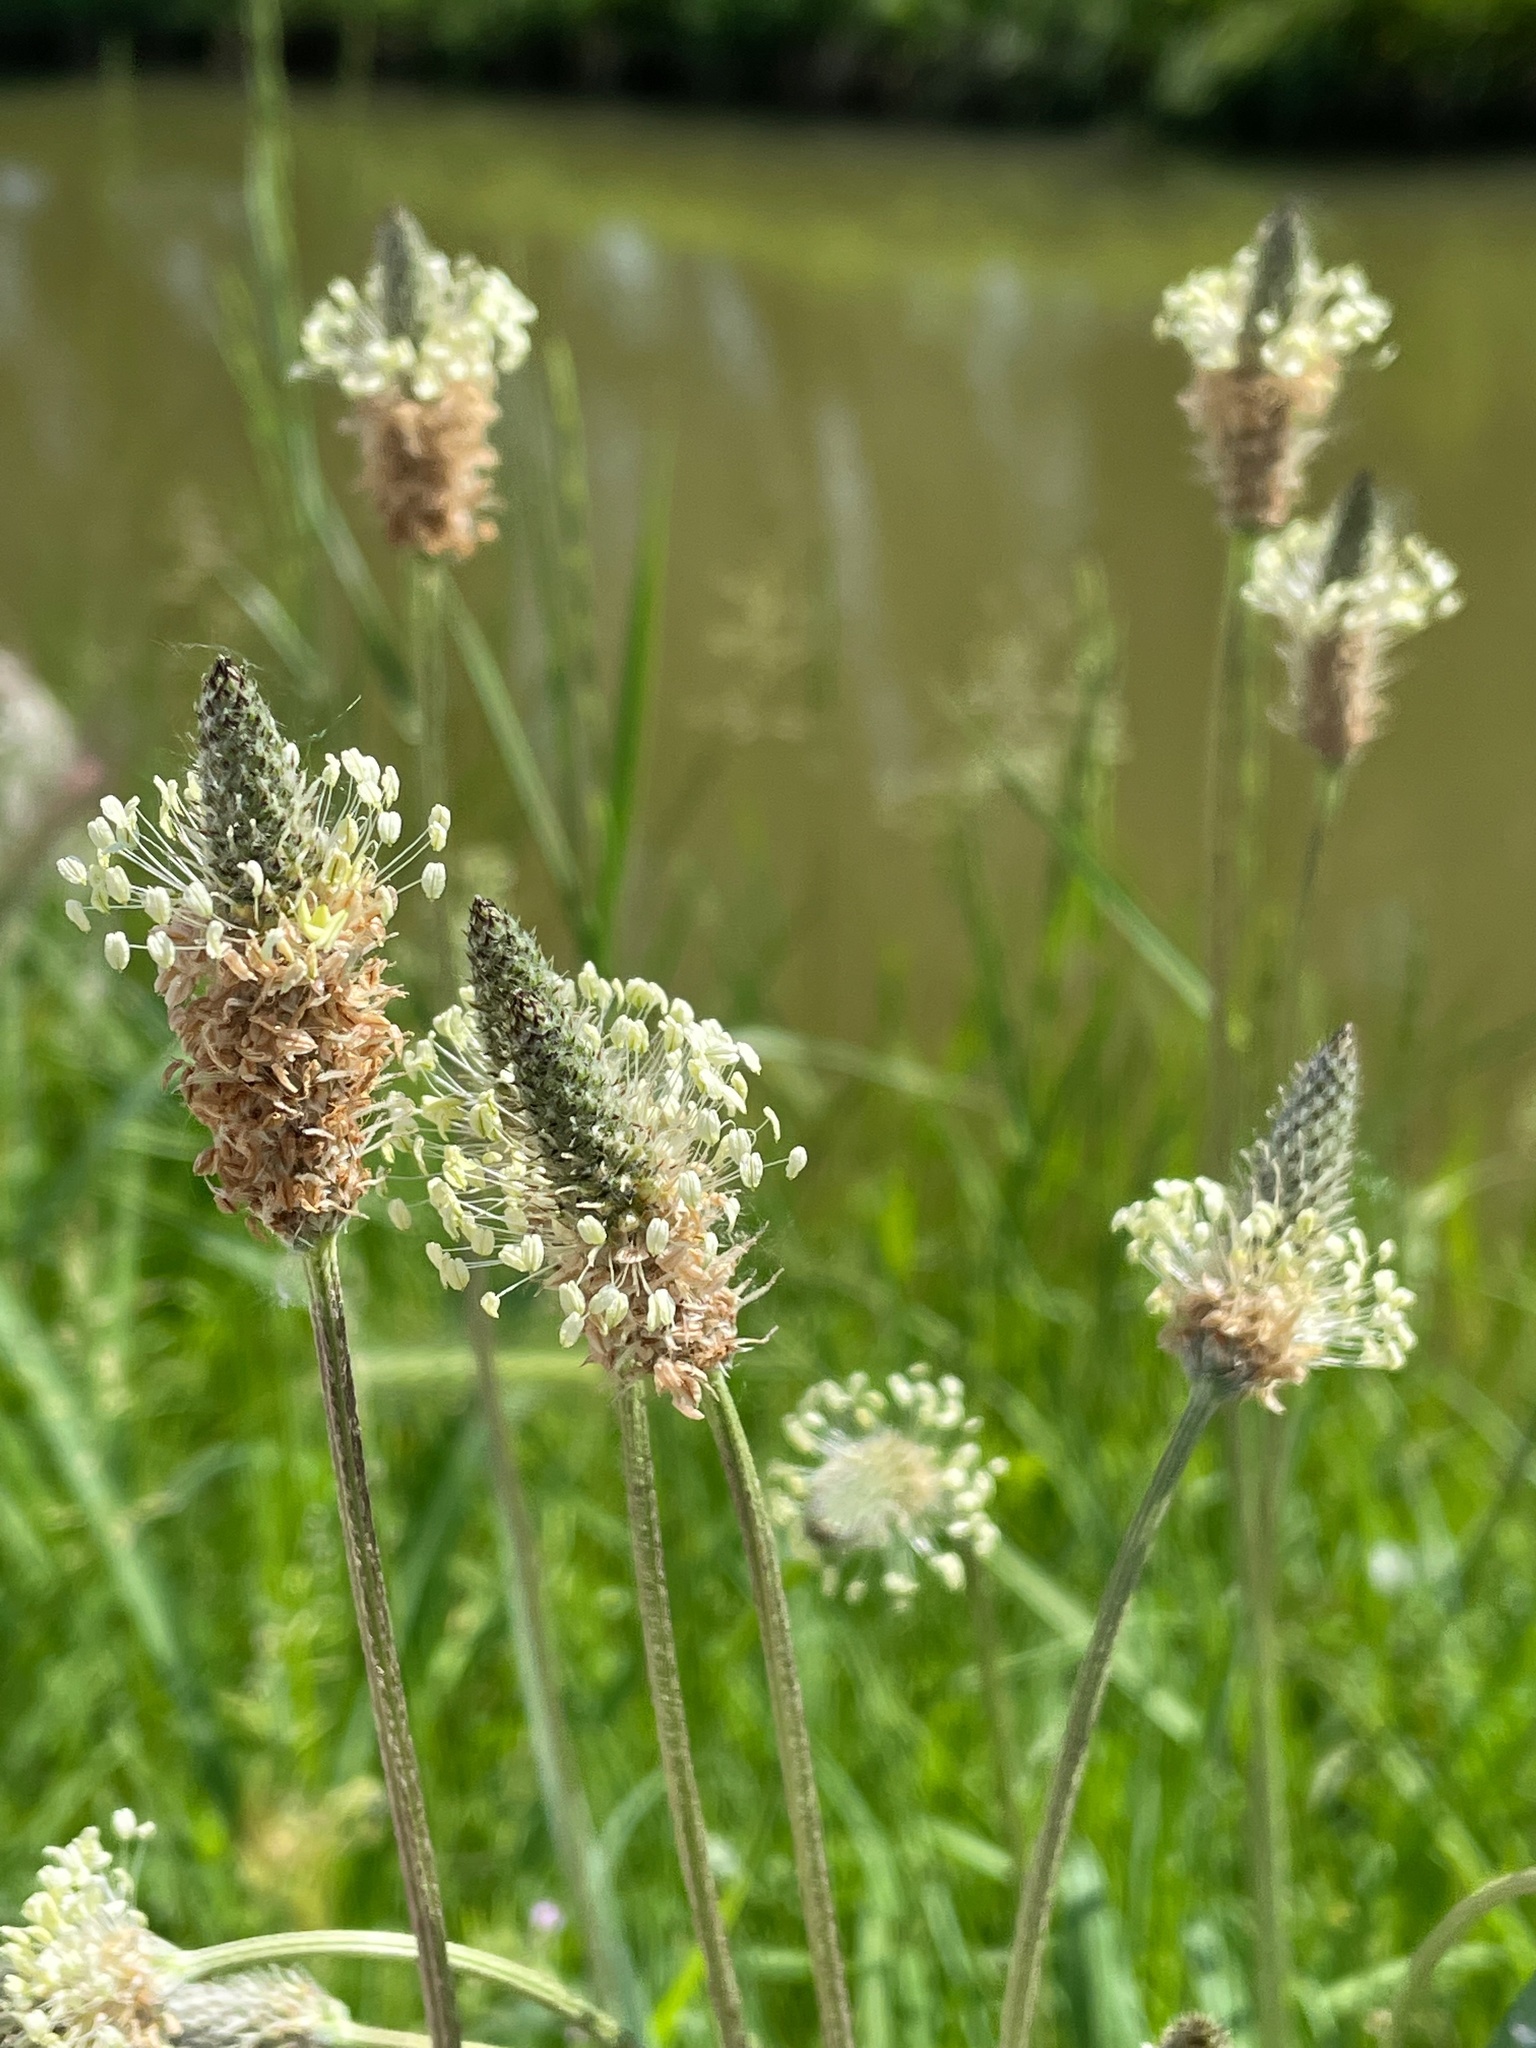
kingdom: Plantae
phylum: Tracheophyta
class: Magnoliopsida
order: Lamiales
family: Plantaginaceae
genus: Plantago
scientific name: Plantago lanceolata
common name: Ribwort plantain
